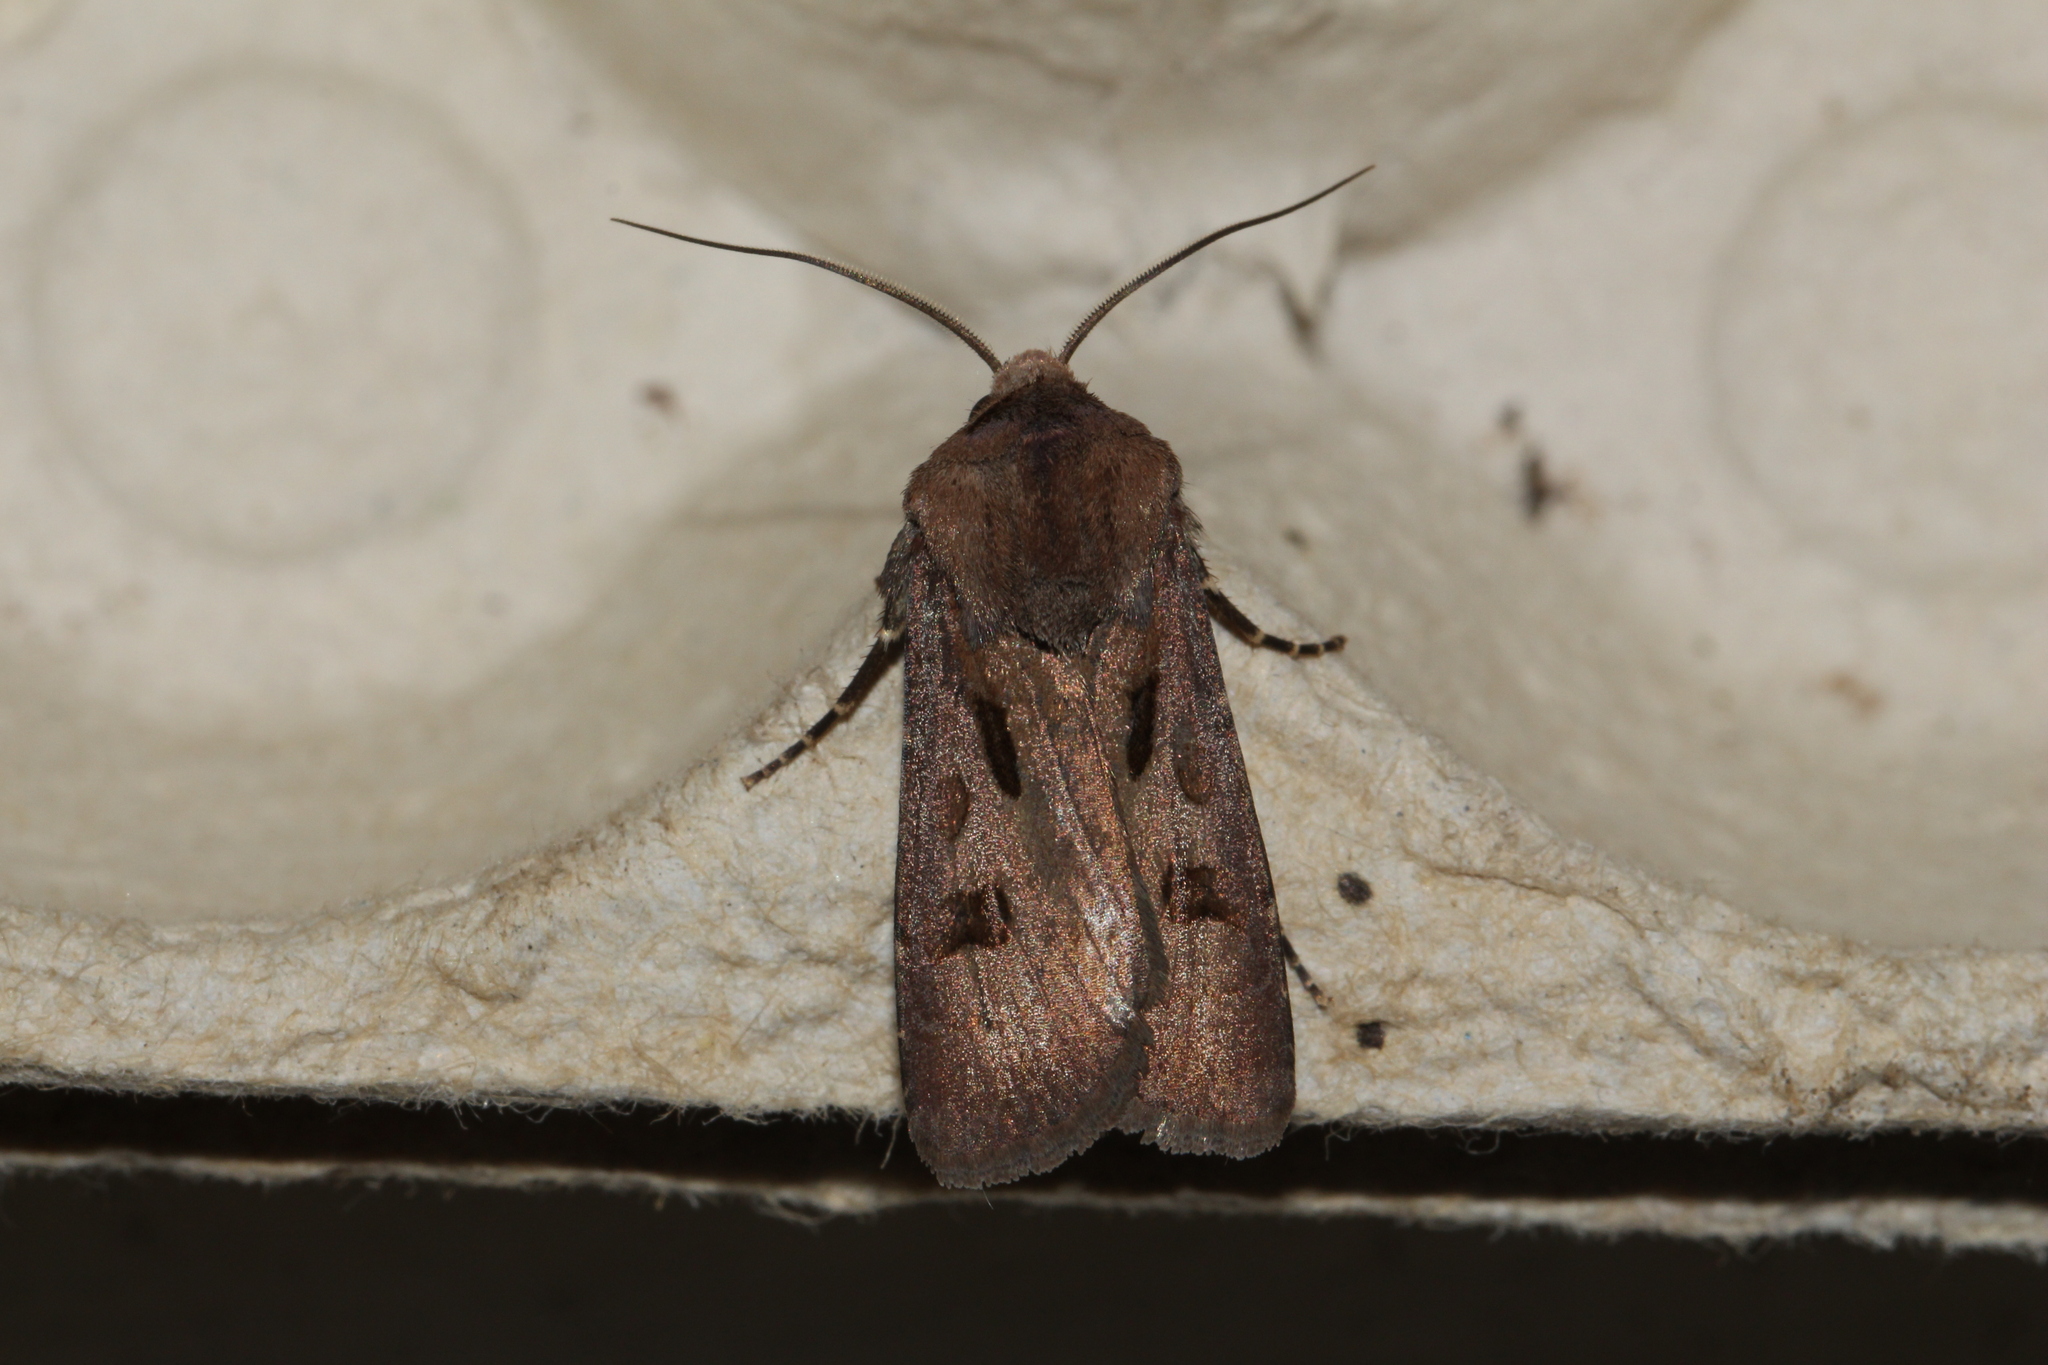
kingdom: Animalia
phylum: Arthropoda
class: Insecta
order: Lepidoptera
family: Noctuidae
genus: Agrotis
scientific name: Agrotis exclamationis
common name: Heart and dart
